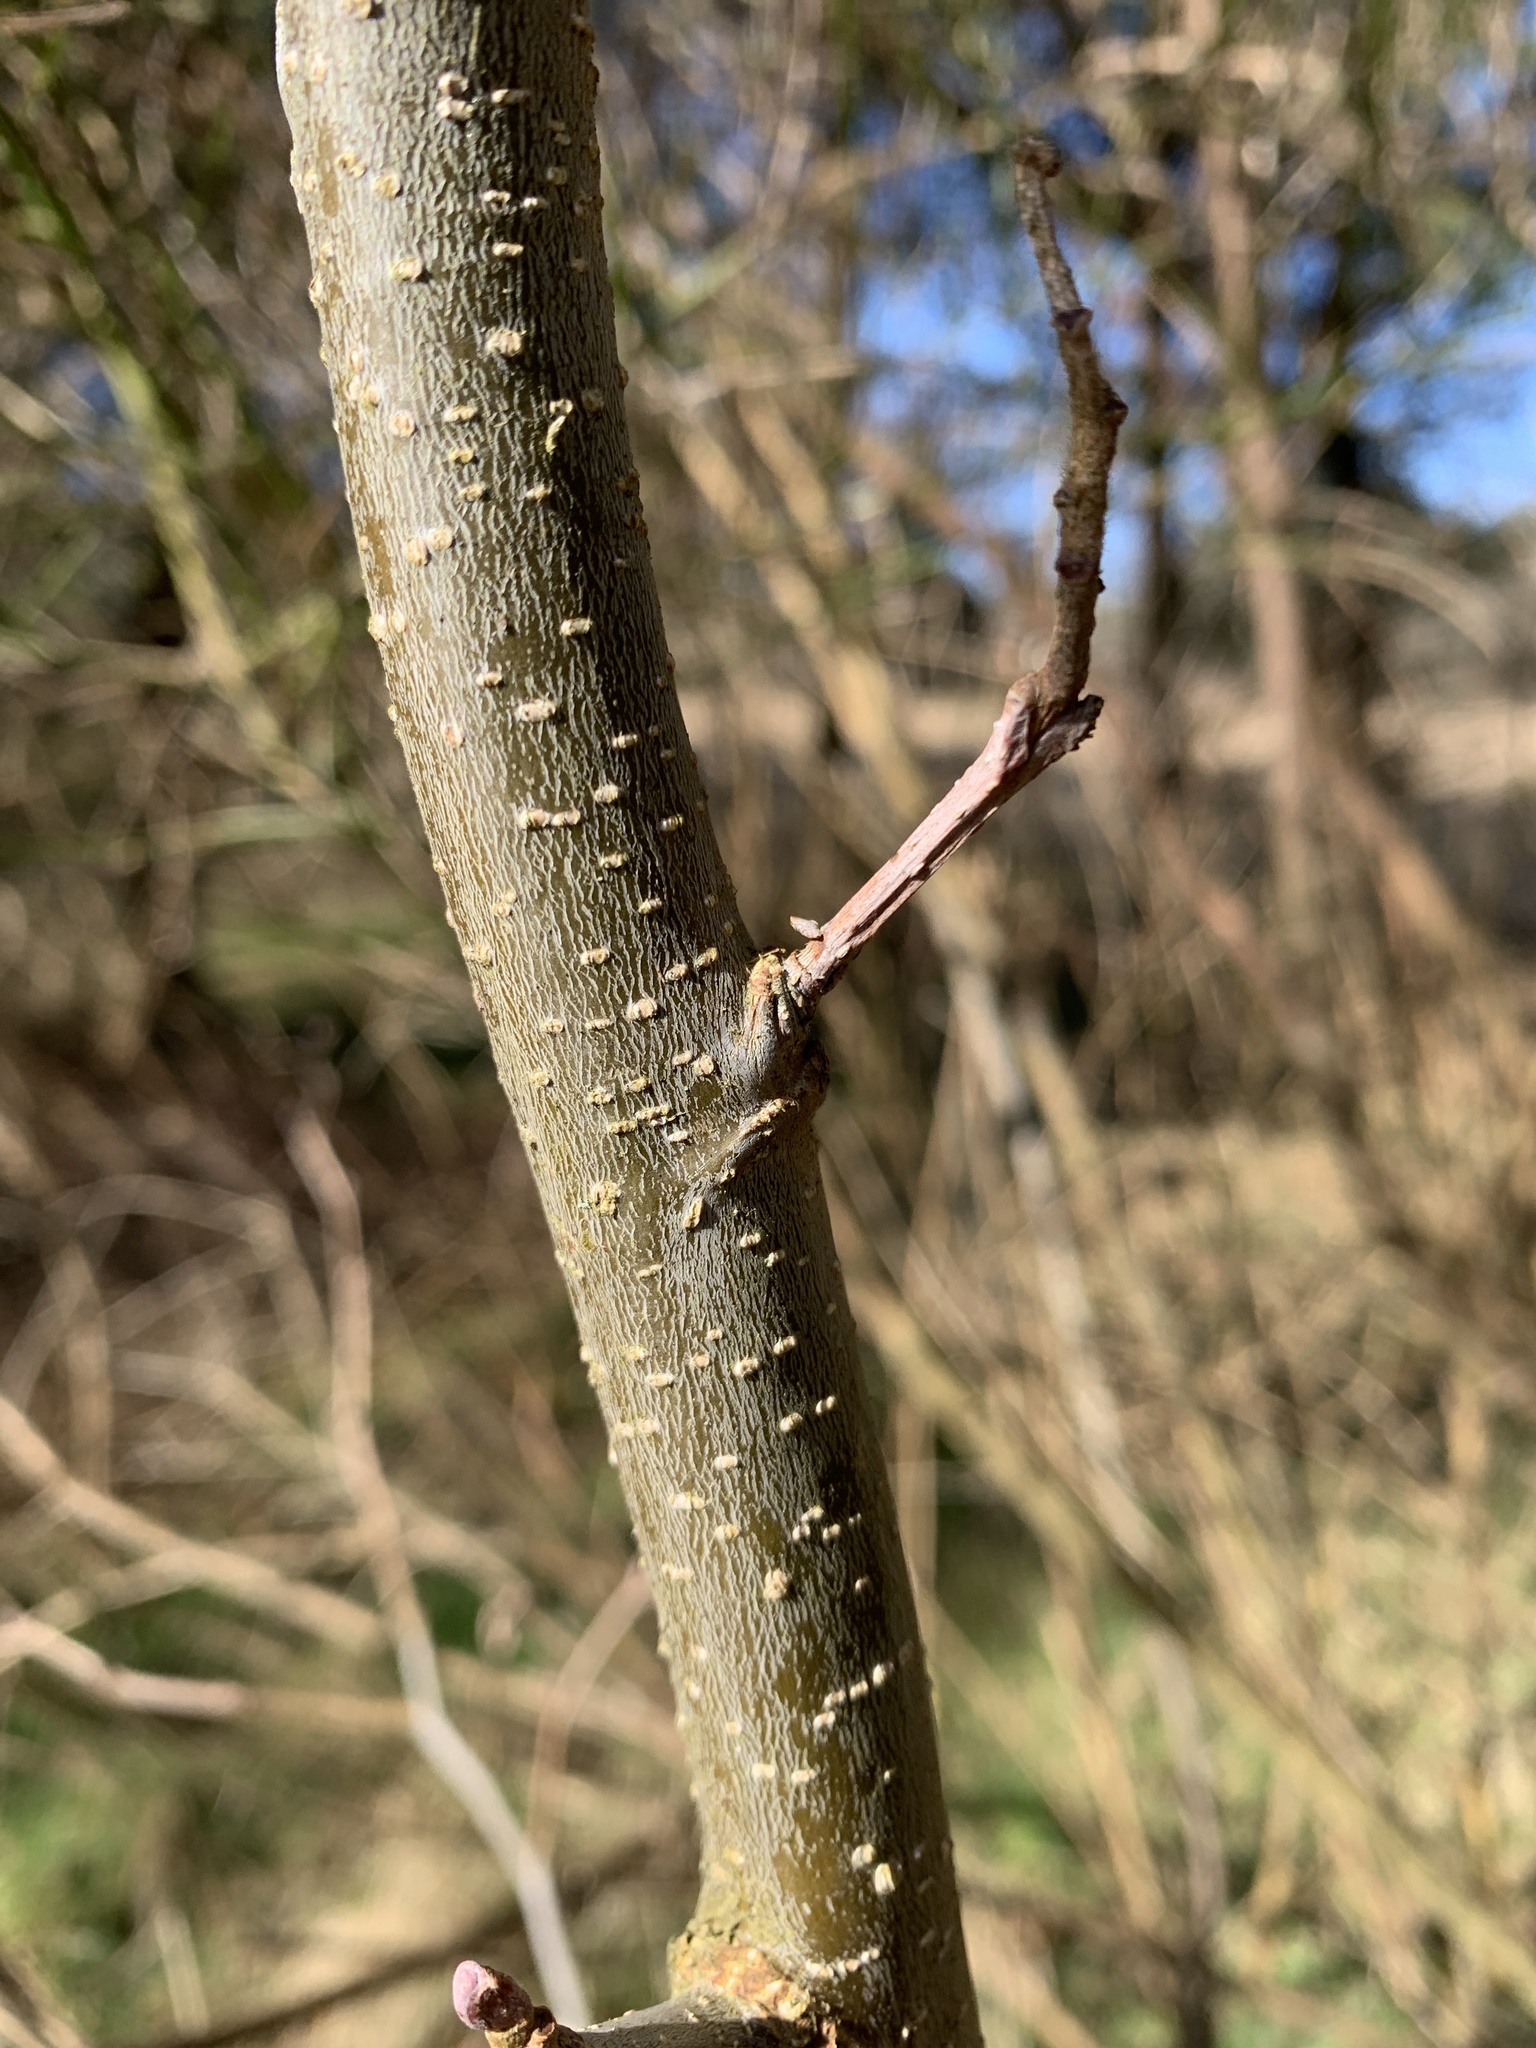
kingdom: Plantae
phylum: Tracheophyta
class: Magnoliopsida
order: Fagales
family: Betulaceae
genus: Alnus
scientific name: Alnus glutinosa
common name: Black alder
